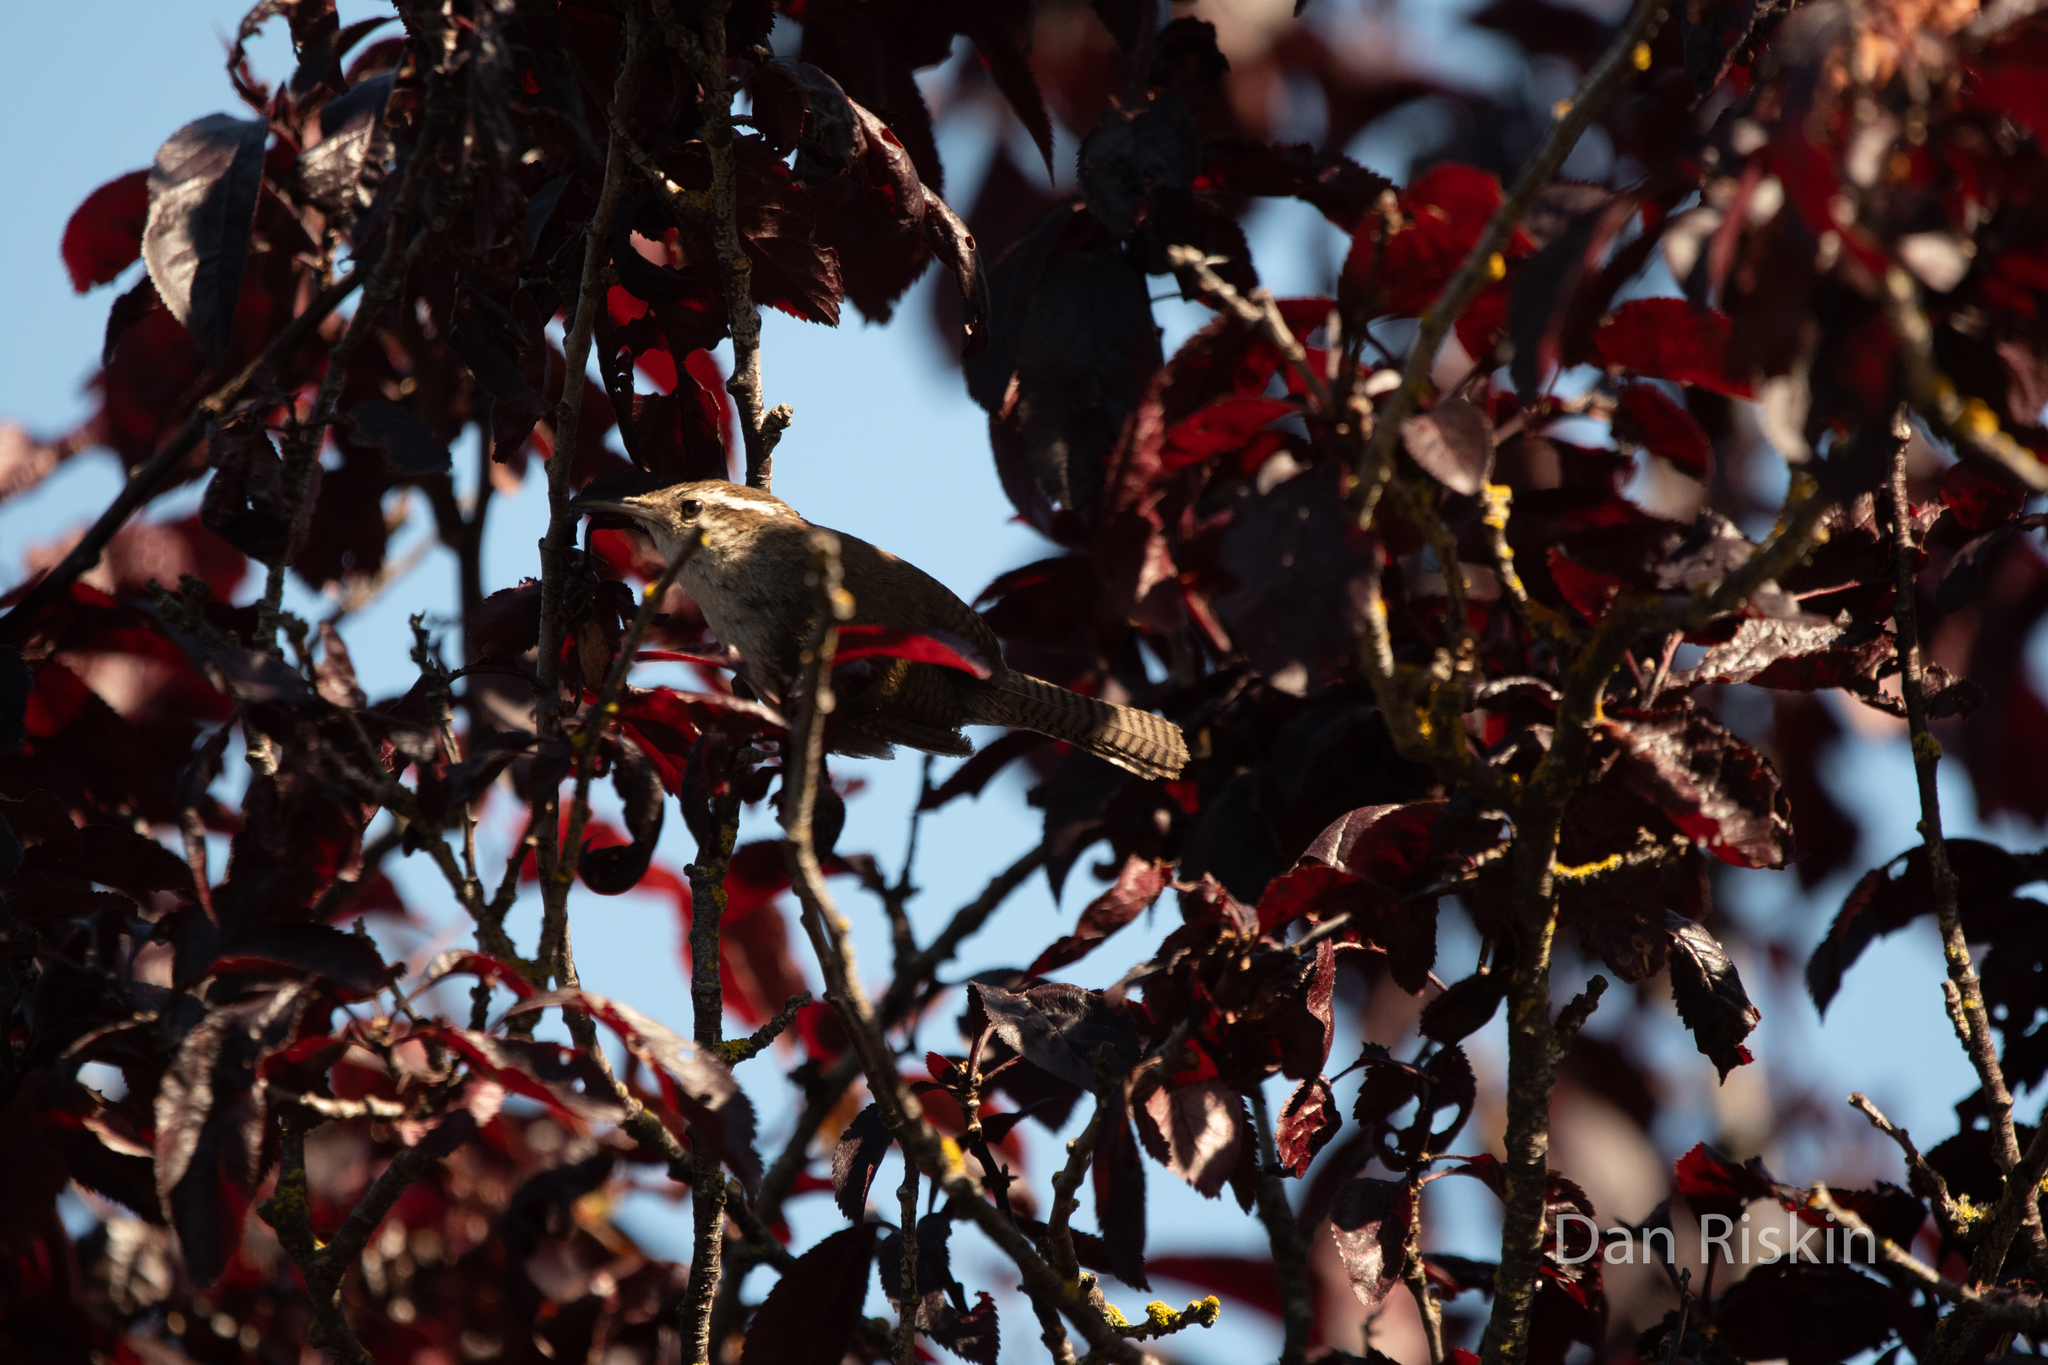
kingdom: Animalia
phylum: Chordata
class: Aves
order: Passeriformes
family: Troglodytidae
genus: Thryomanes
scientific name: Thryomanes bewickii
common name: Bewick's wren
